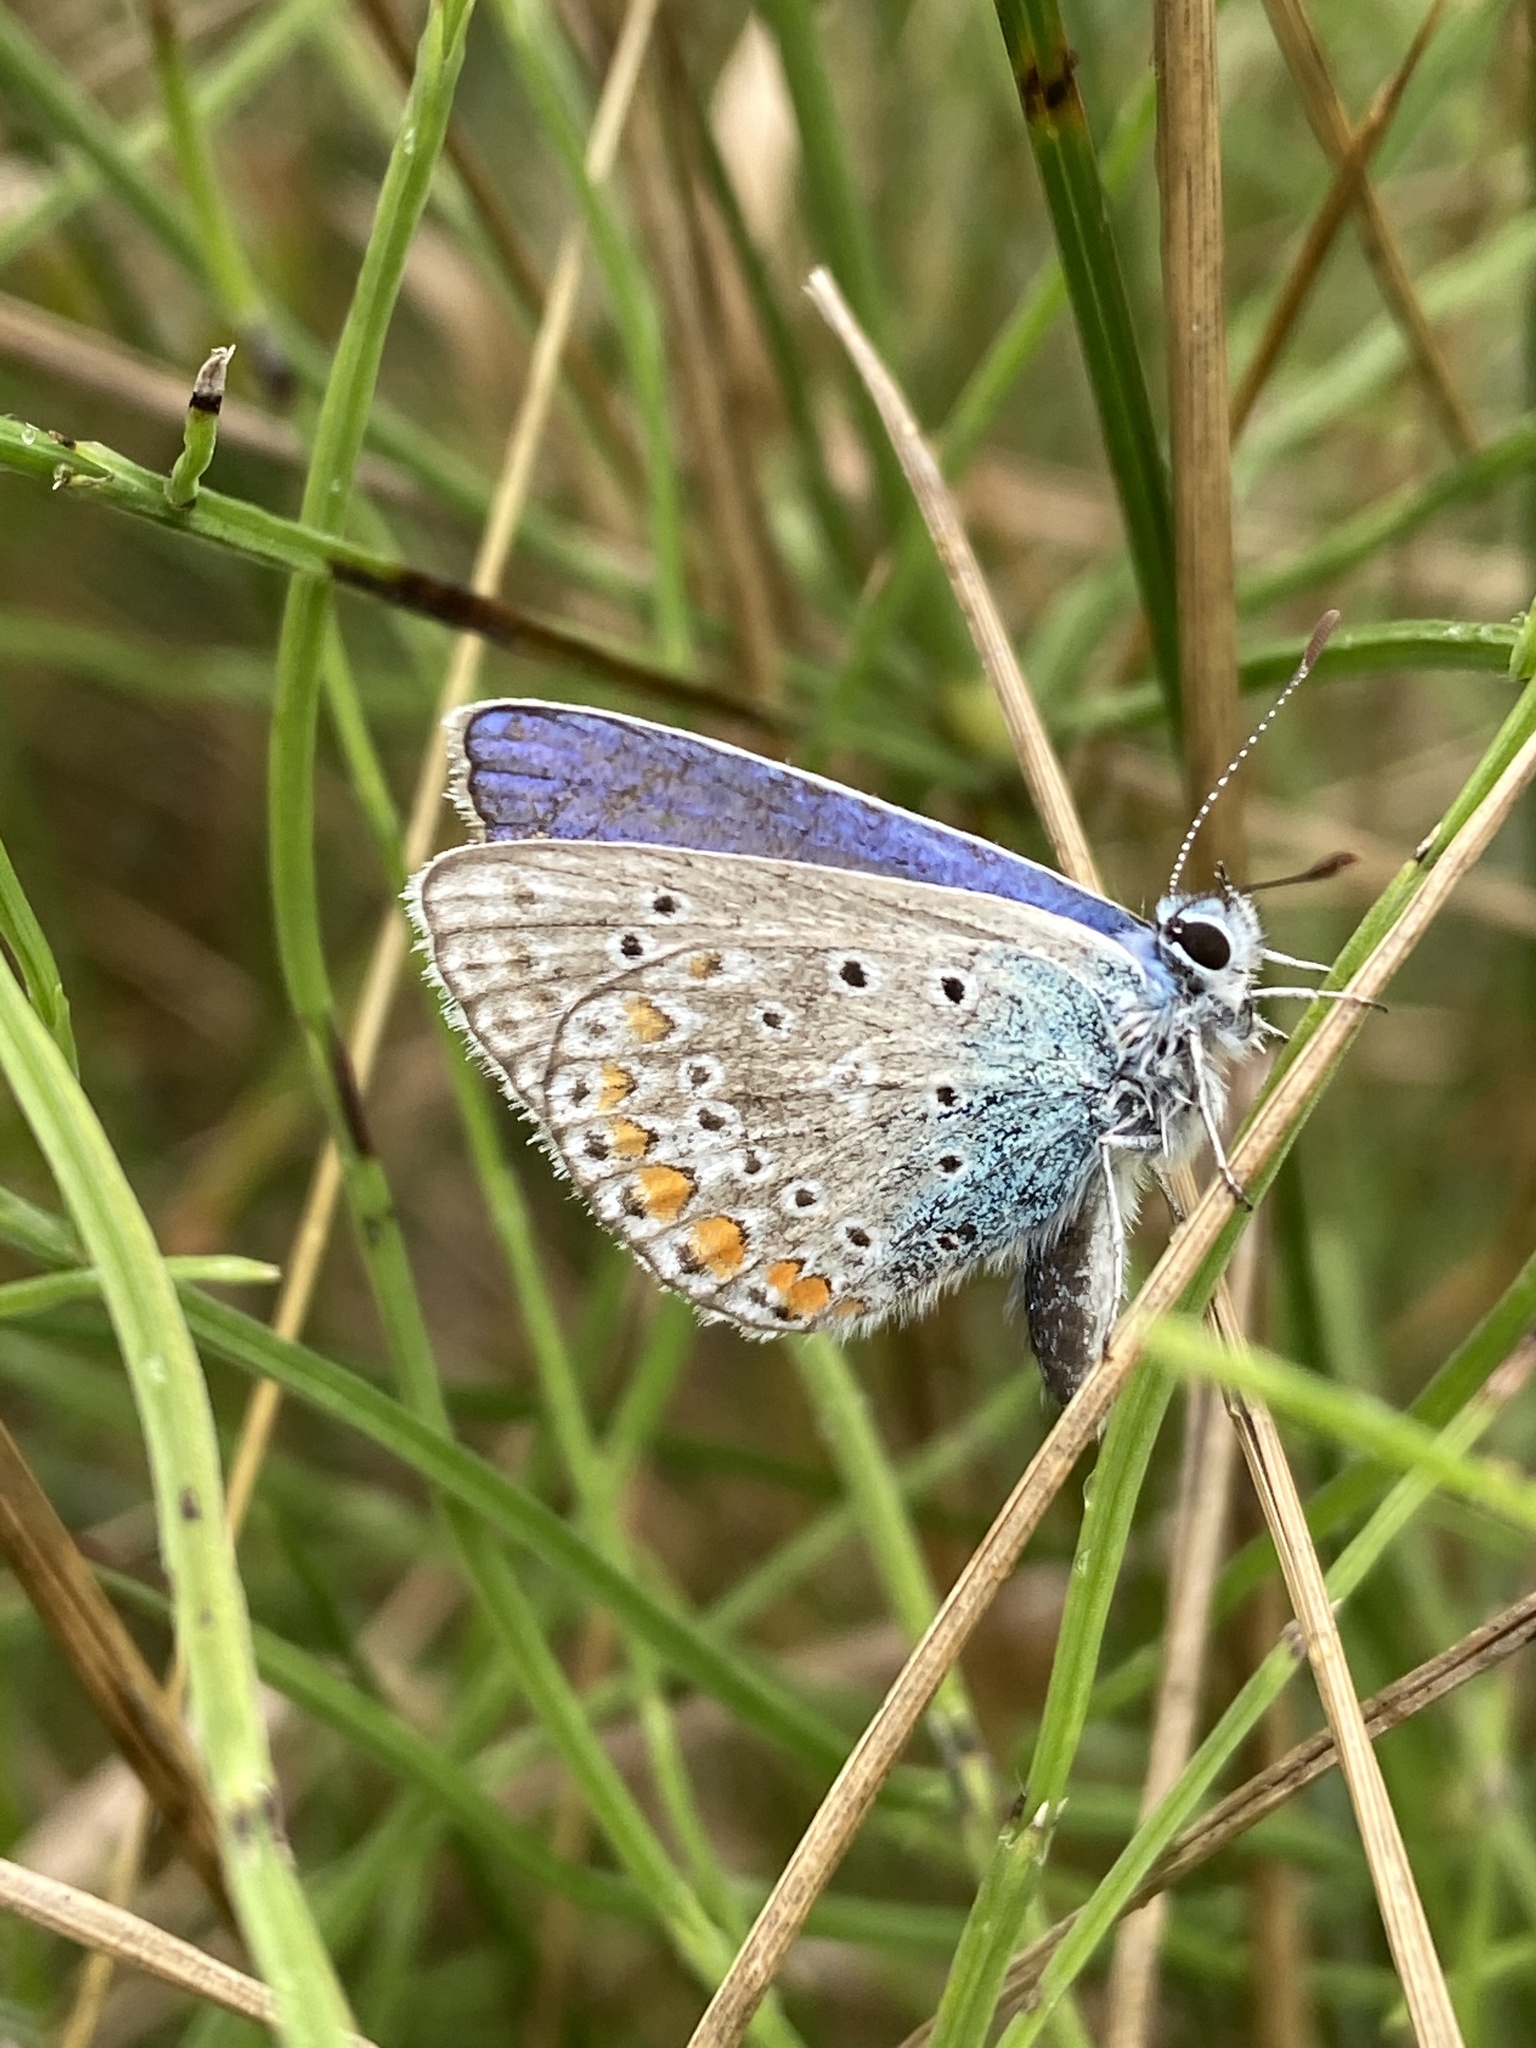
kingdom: Animalia
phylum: Arthropoda
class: Insecta
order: Lepidoptera
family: Lycaenidae
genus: Polyommatus
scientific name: Polyommatus icarus
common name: Common blue
